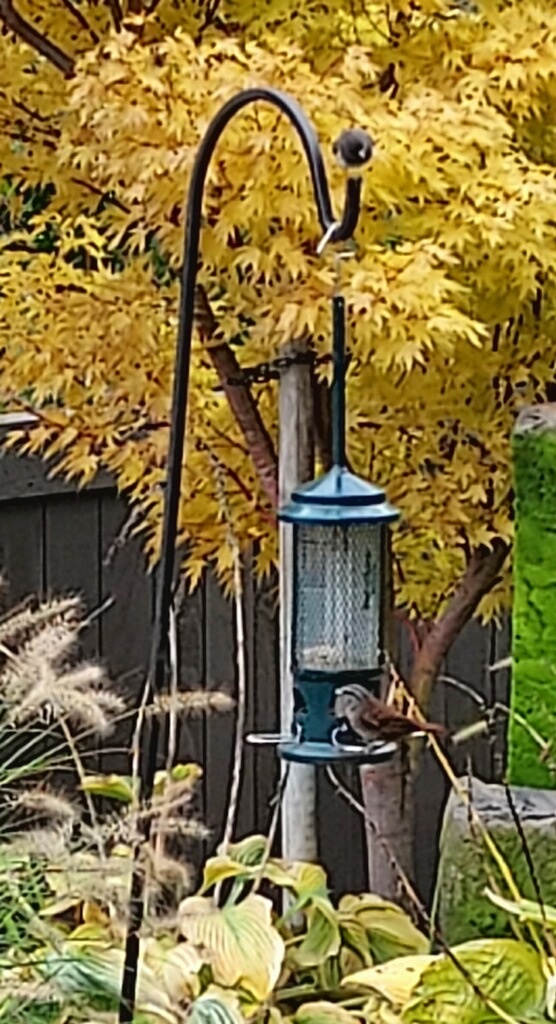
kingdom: Animalia
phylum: Chordata
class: Aves
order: Passeriformes
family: Passerellidae
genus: Melospiza
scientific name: Melospiza melodia
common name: Song sparrow
